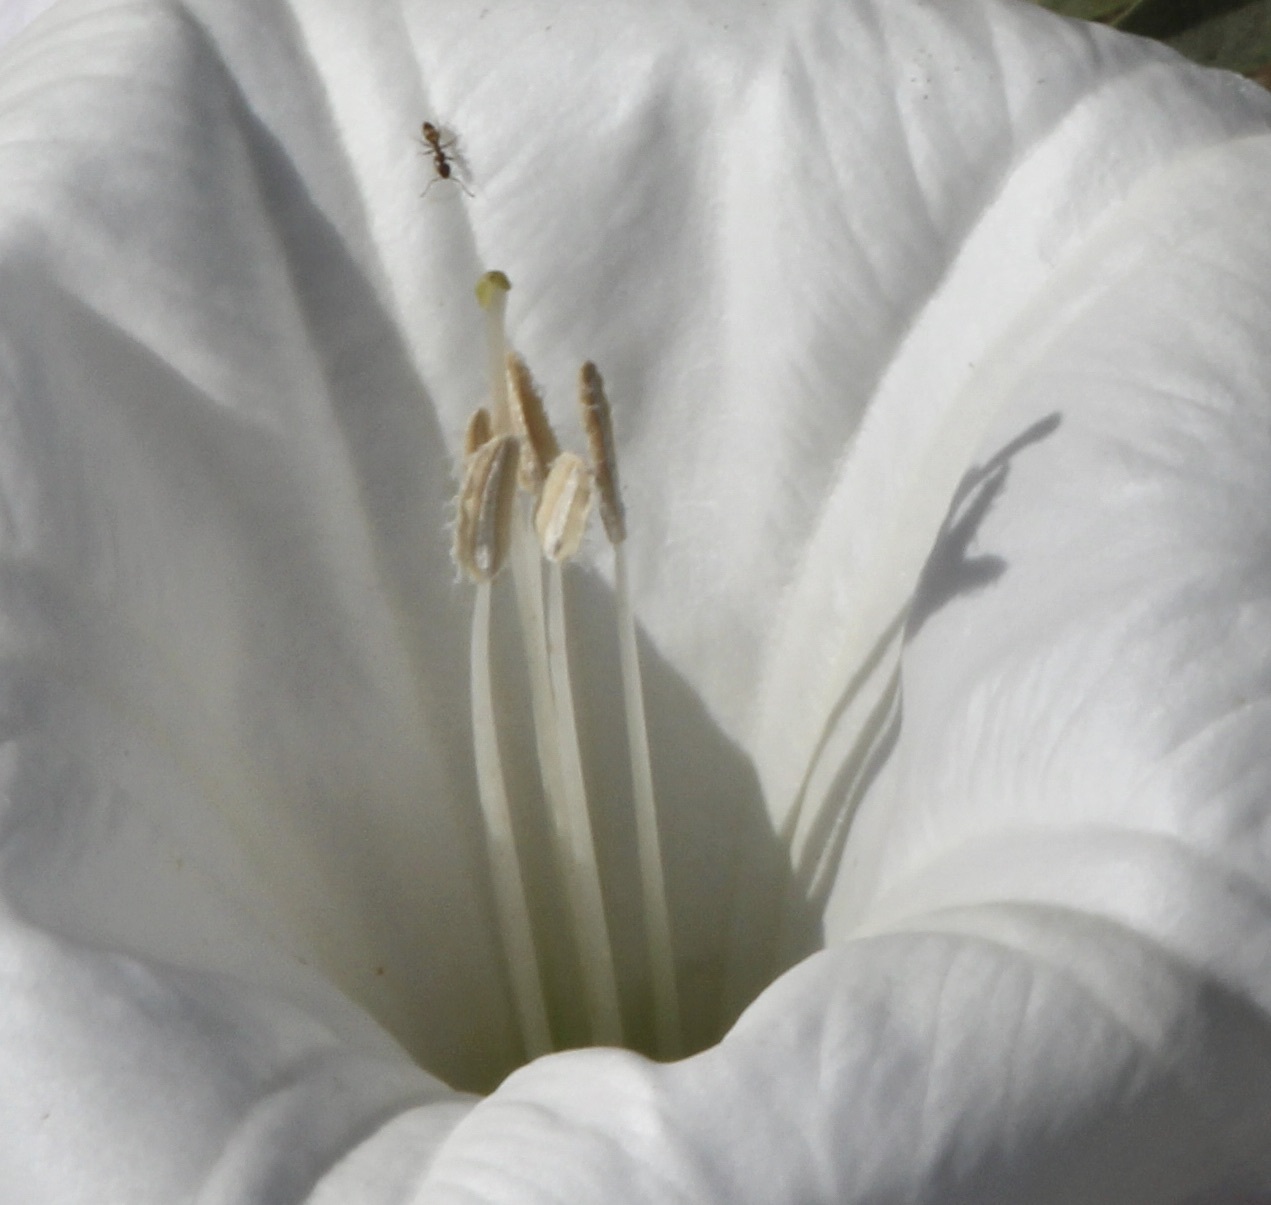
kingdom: Animalia
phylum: Arthropoda
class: Insecta
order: Hymenoptera
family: Formicidae
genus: Linepithema
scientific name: Linepithema humile
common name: Argentine ant
